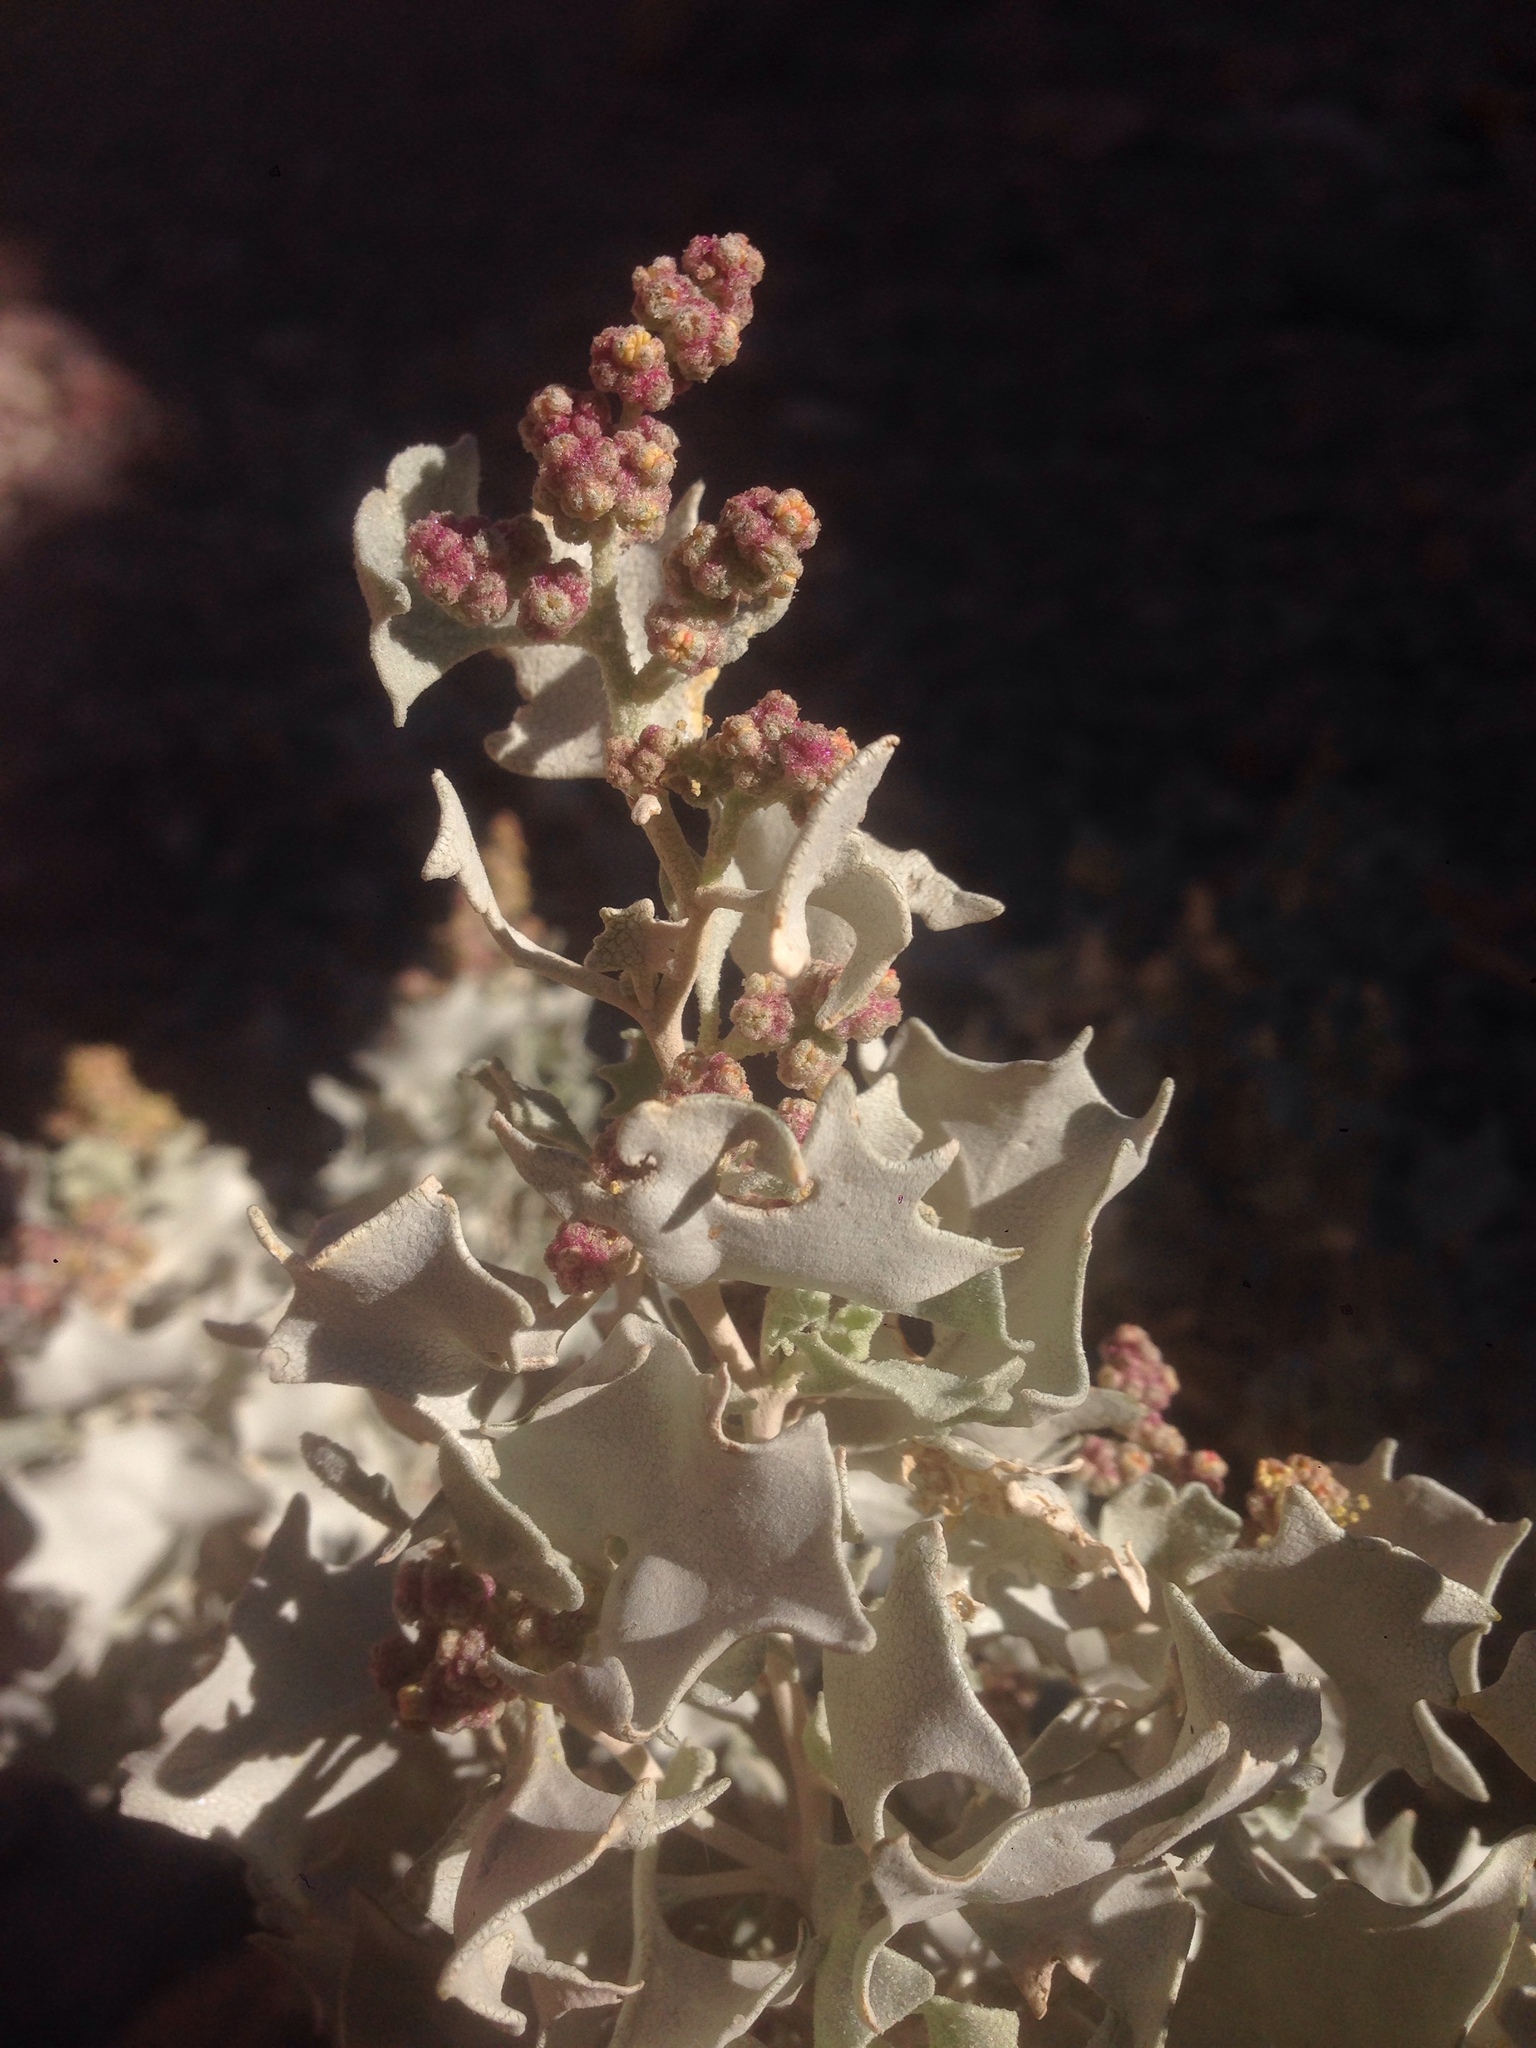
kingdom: Plantae
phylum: Tracheophyta
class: Magnoliopsida
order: Caryophyllales
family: Amaranthaceae
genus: Atriplex
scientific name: Atriplex hymenelytra
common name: Desert-holly
